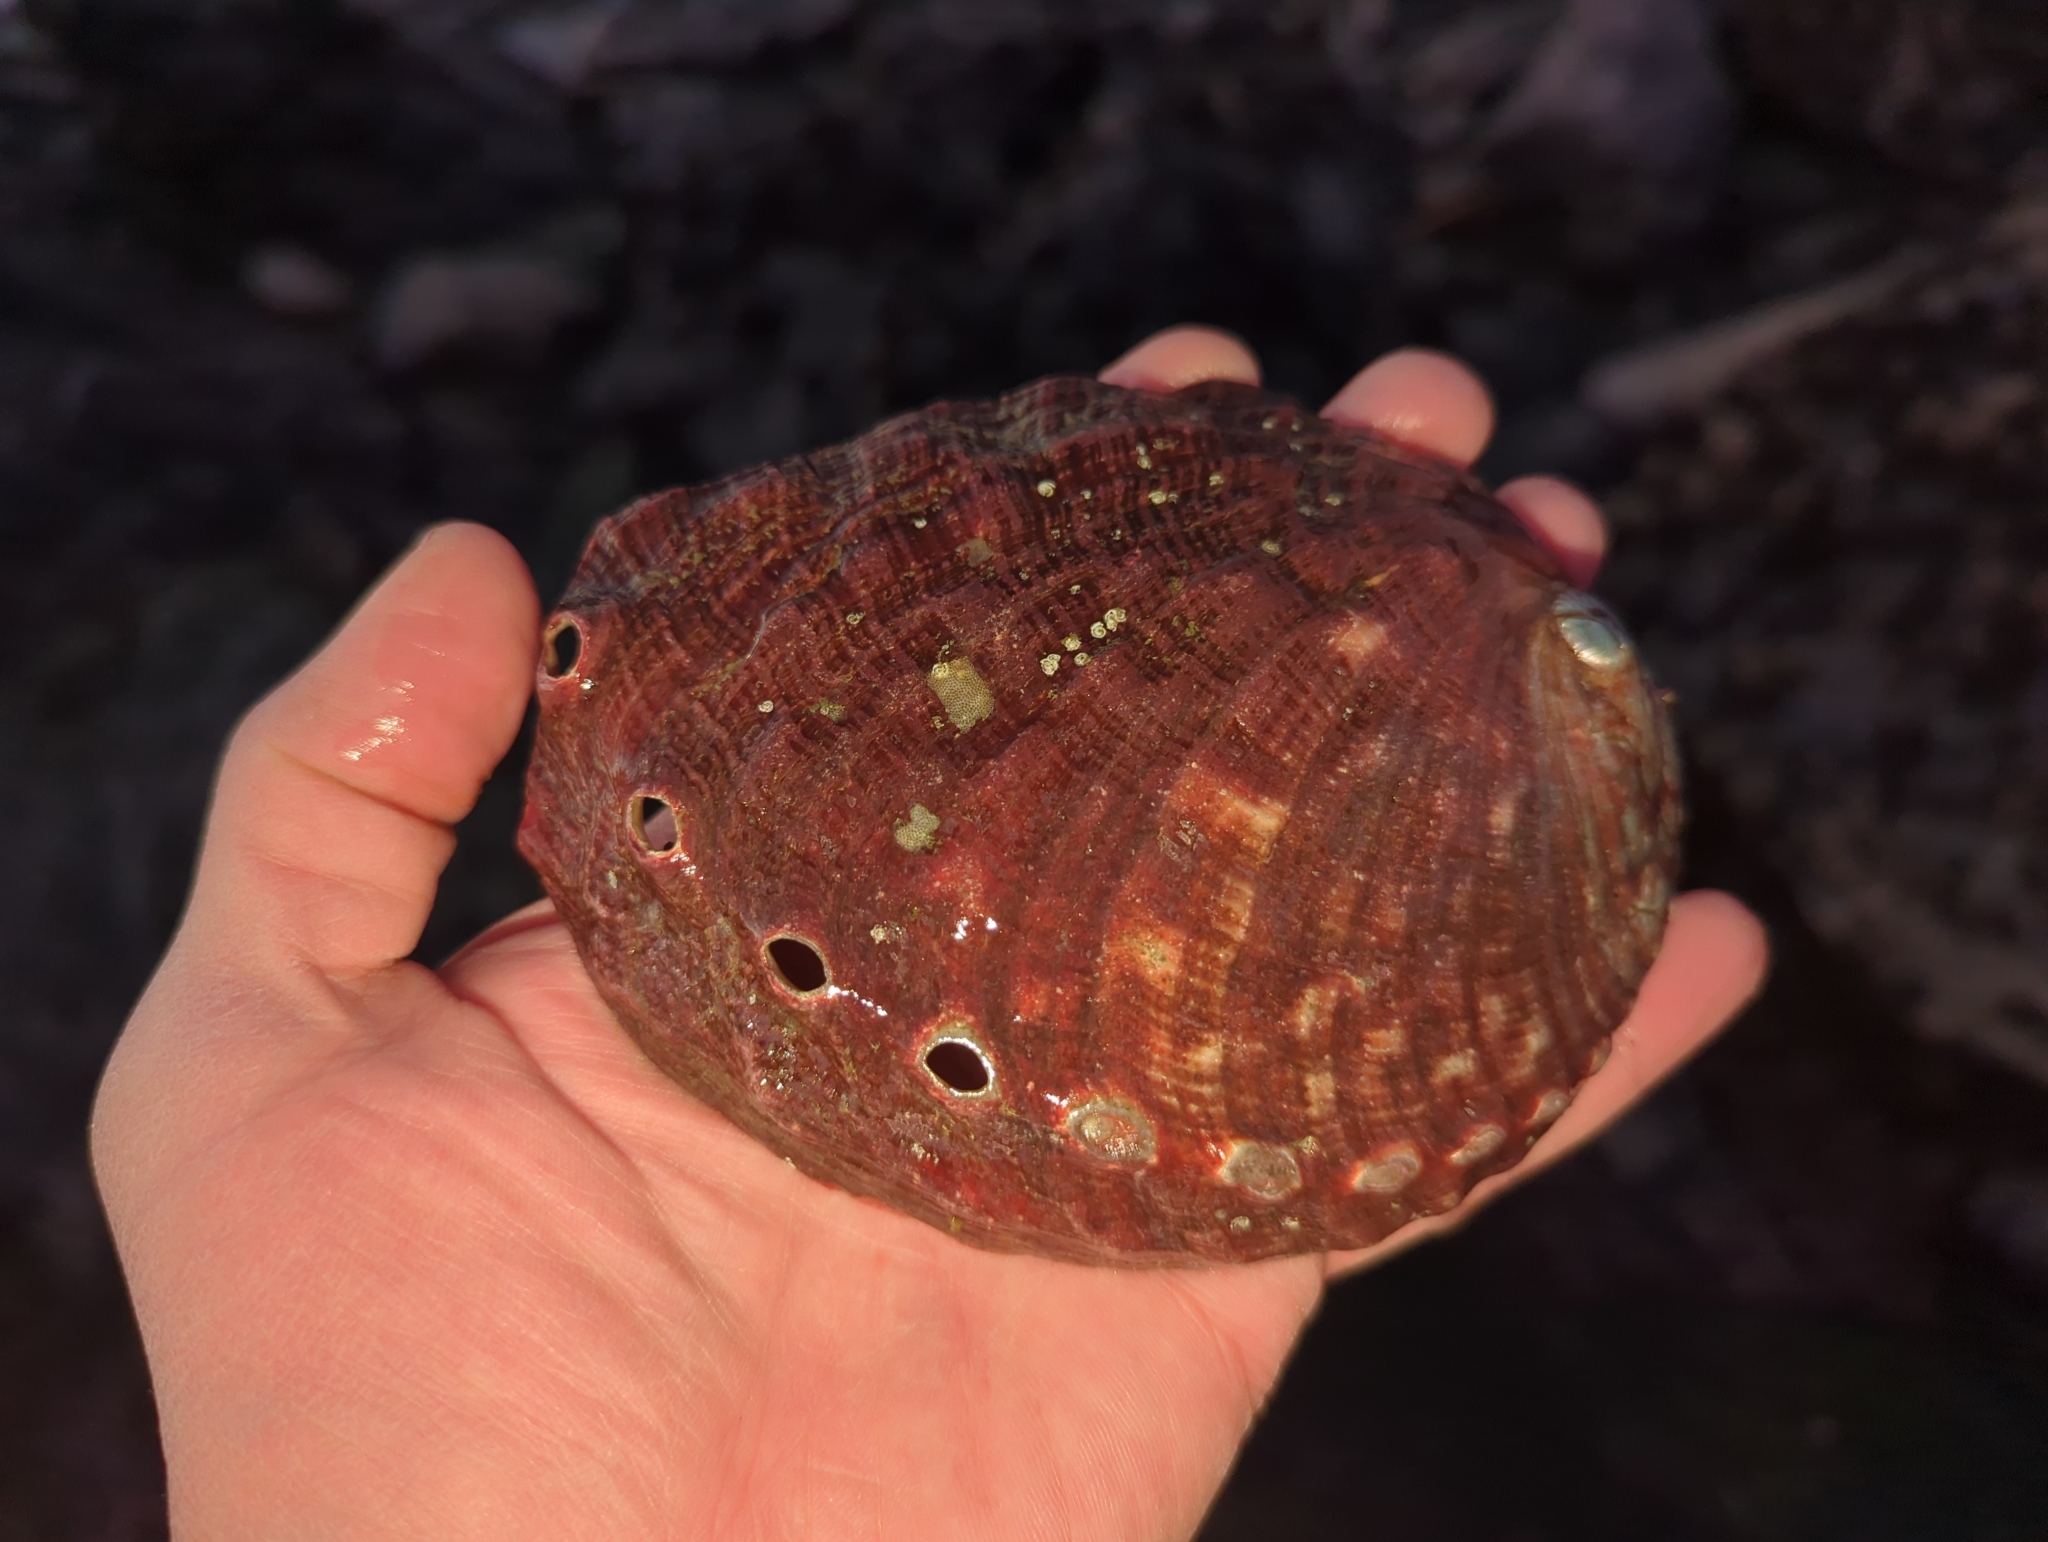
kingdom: Animalia
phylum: Mollusca
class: Gastropoda
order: Lepetellida
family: Haliotidae
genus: Haliotis
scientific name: Haliotis rufescens
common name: Red abalone
